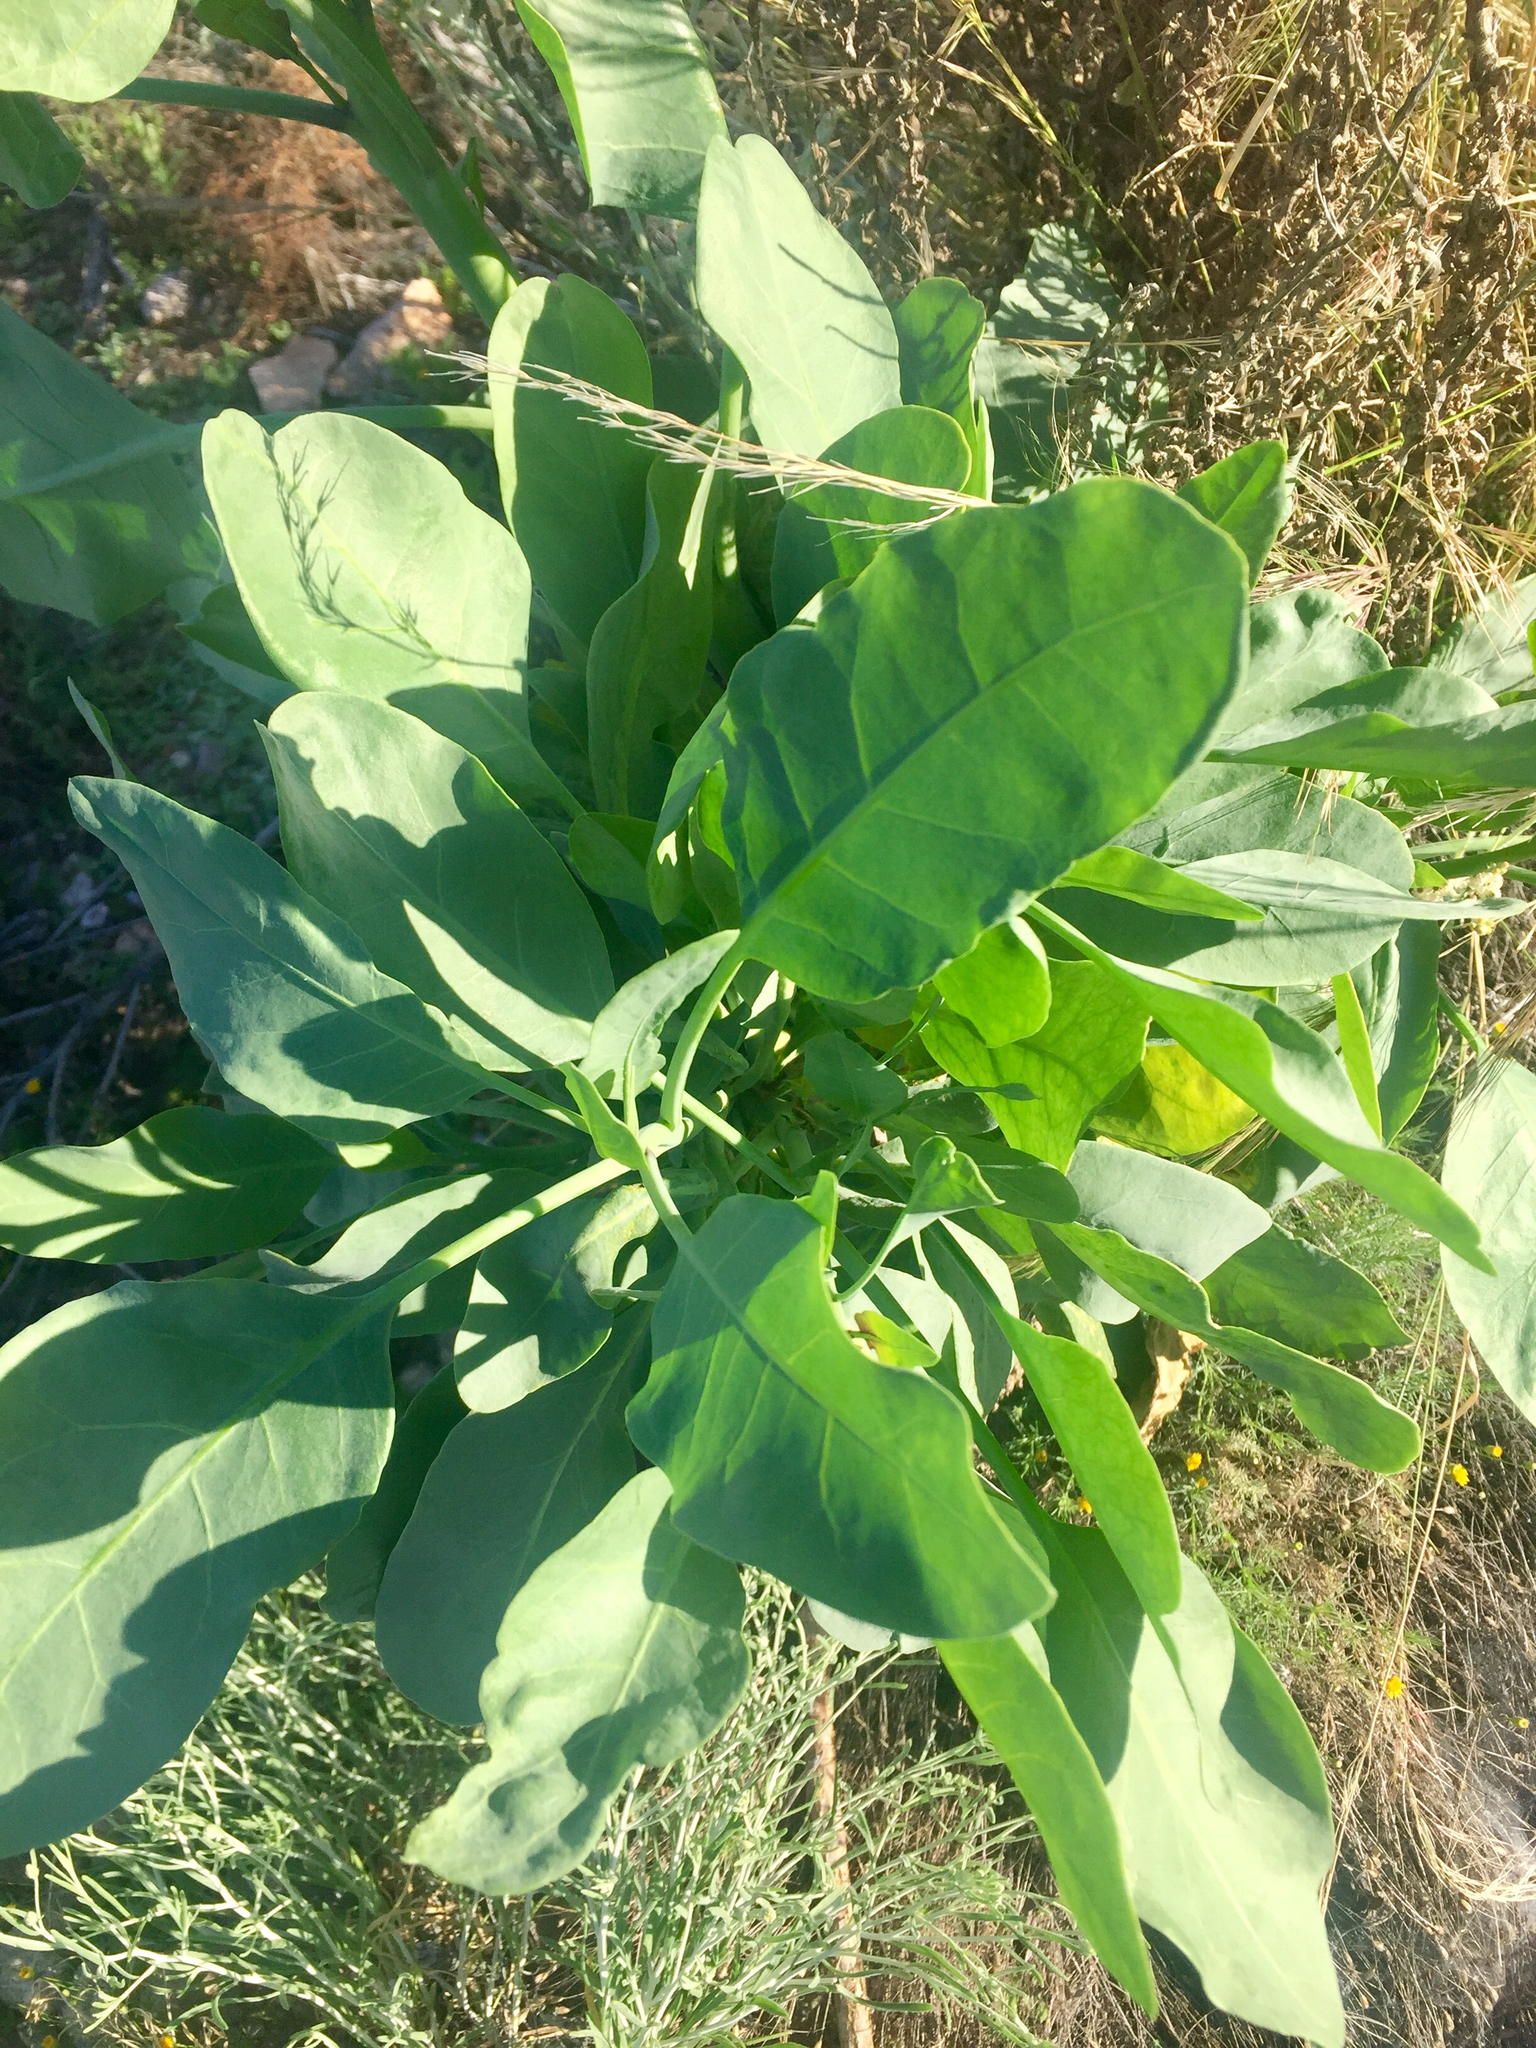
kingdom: Plantae
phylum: Tracheophyta
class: Magnoliopsida
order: Solanales
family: Solanaceae
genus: Nicotiana
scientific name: Nicotiana glauca
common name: Tree tobacco
